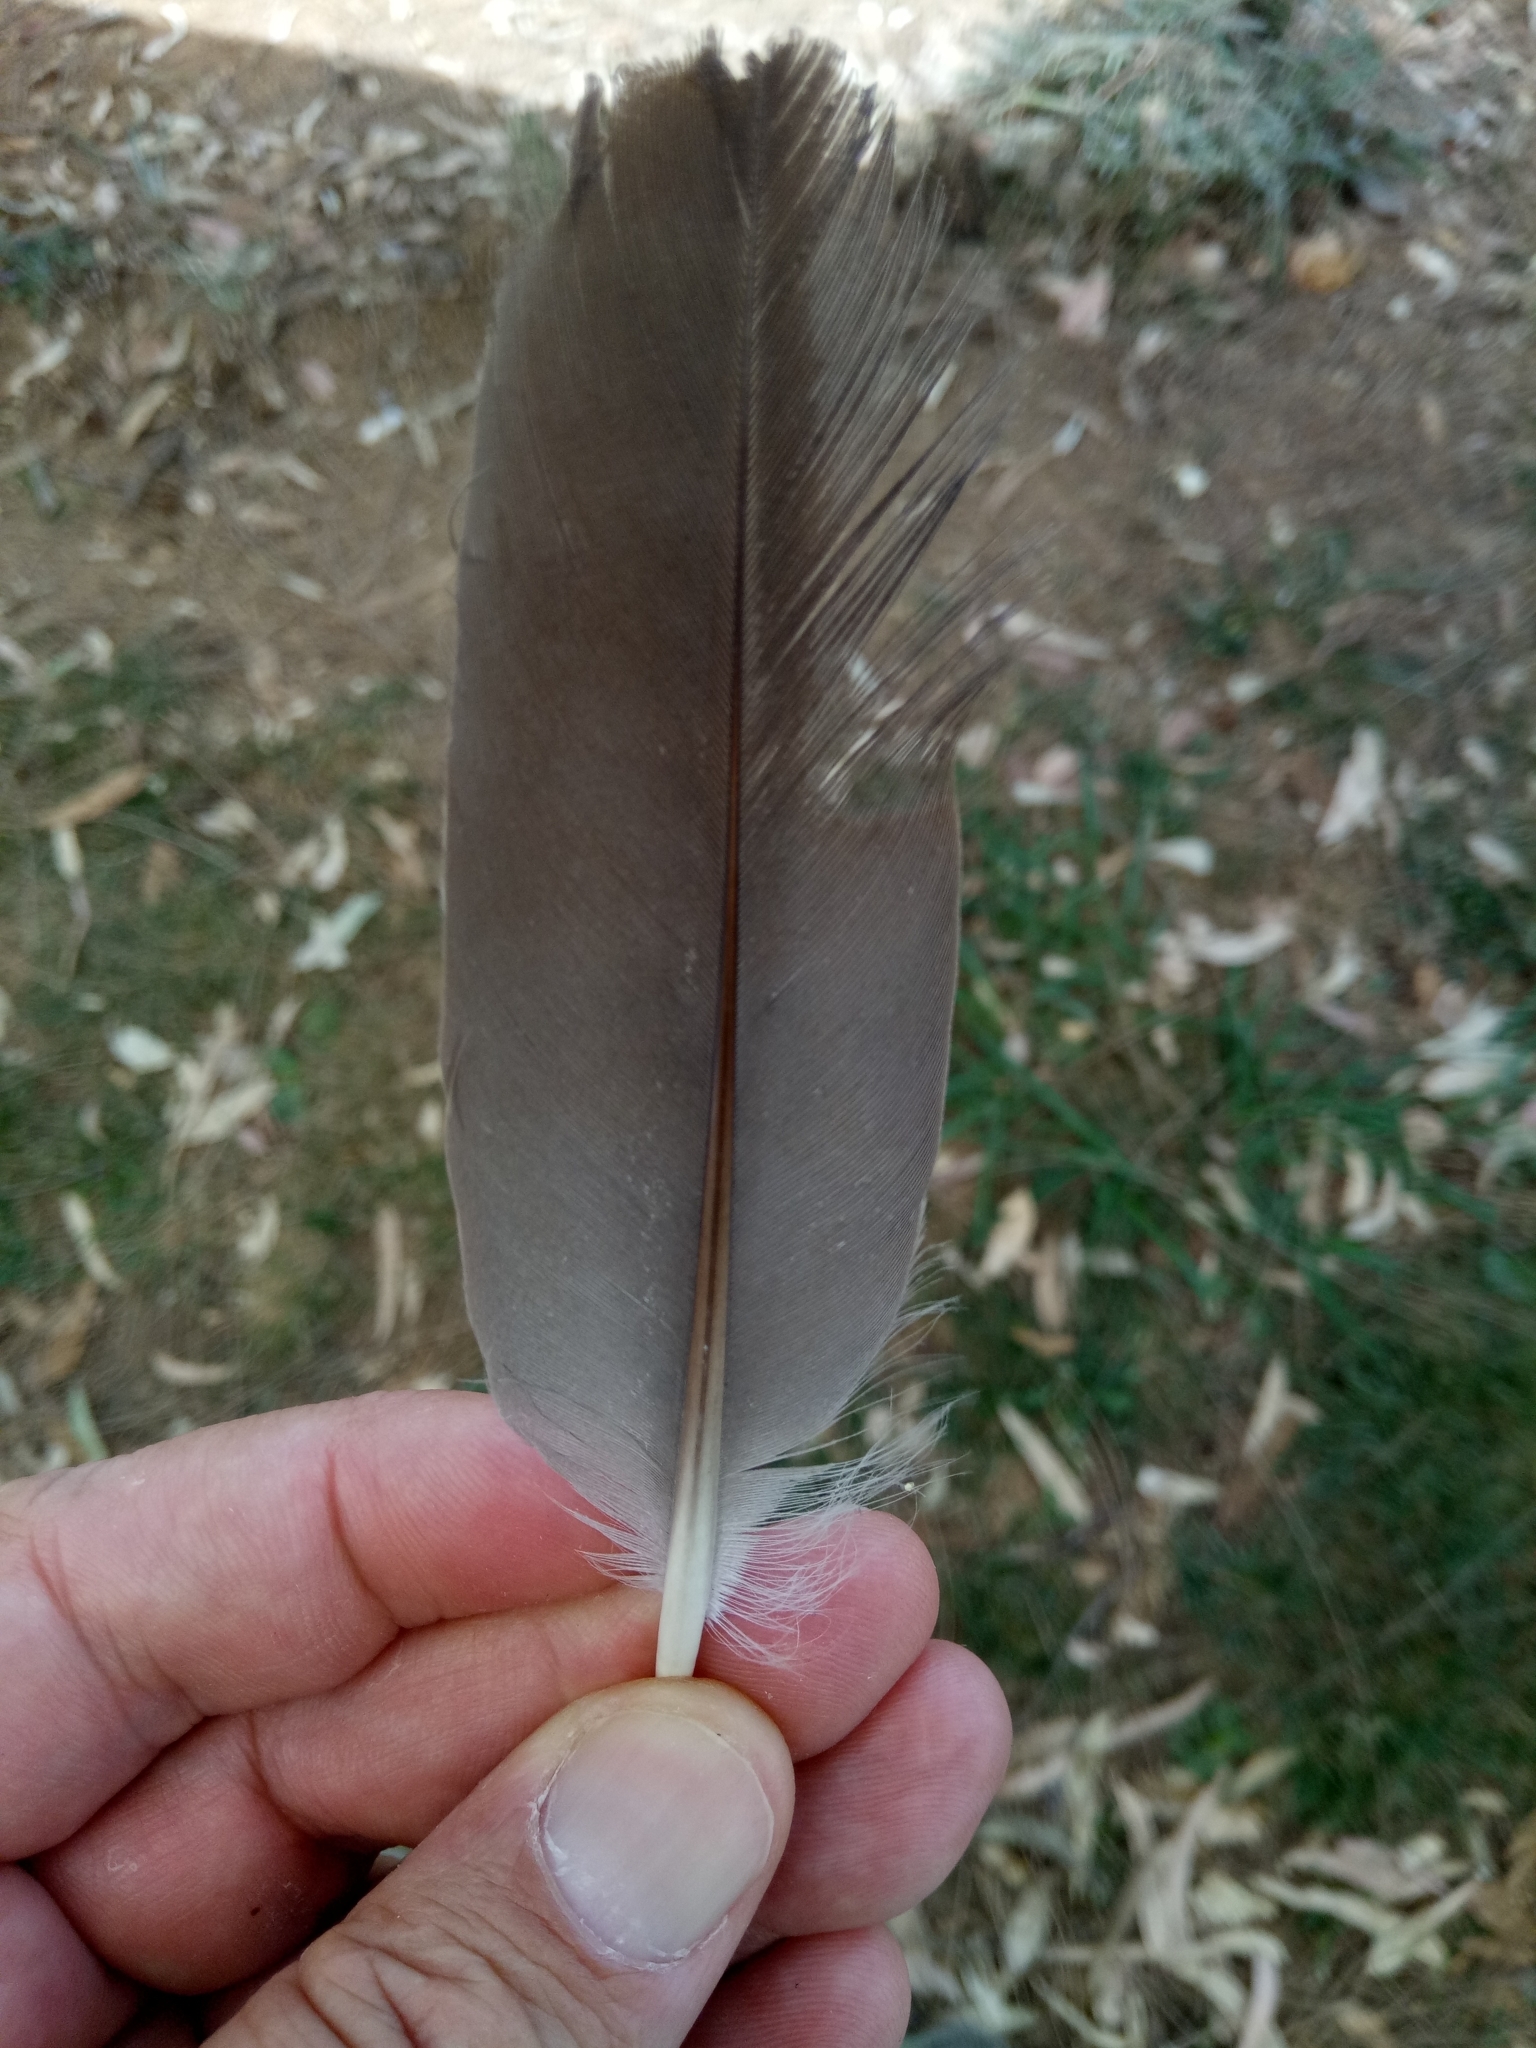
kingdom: Animalia
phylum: Chordata
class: Aves
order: Columbiformes
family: Columbidae
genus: Columba
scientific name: Columba palumbus
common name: Common wood pigeon
